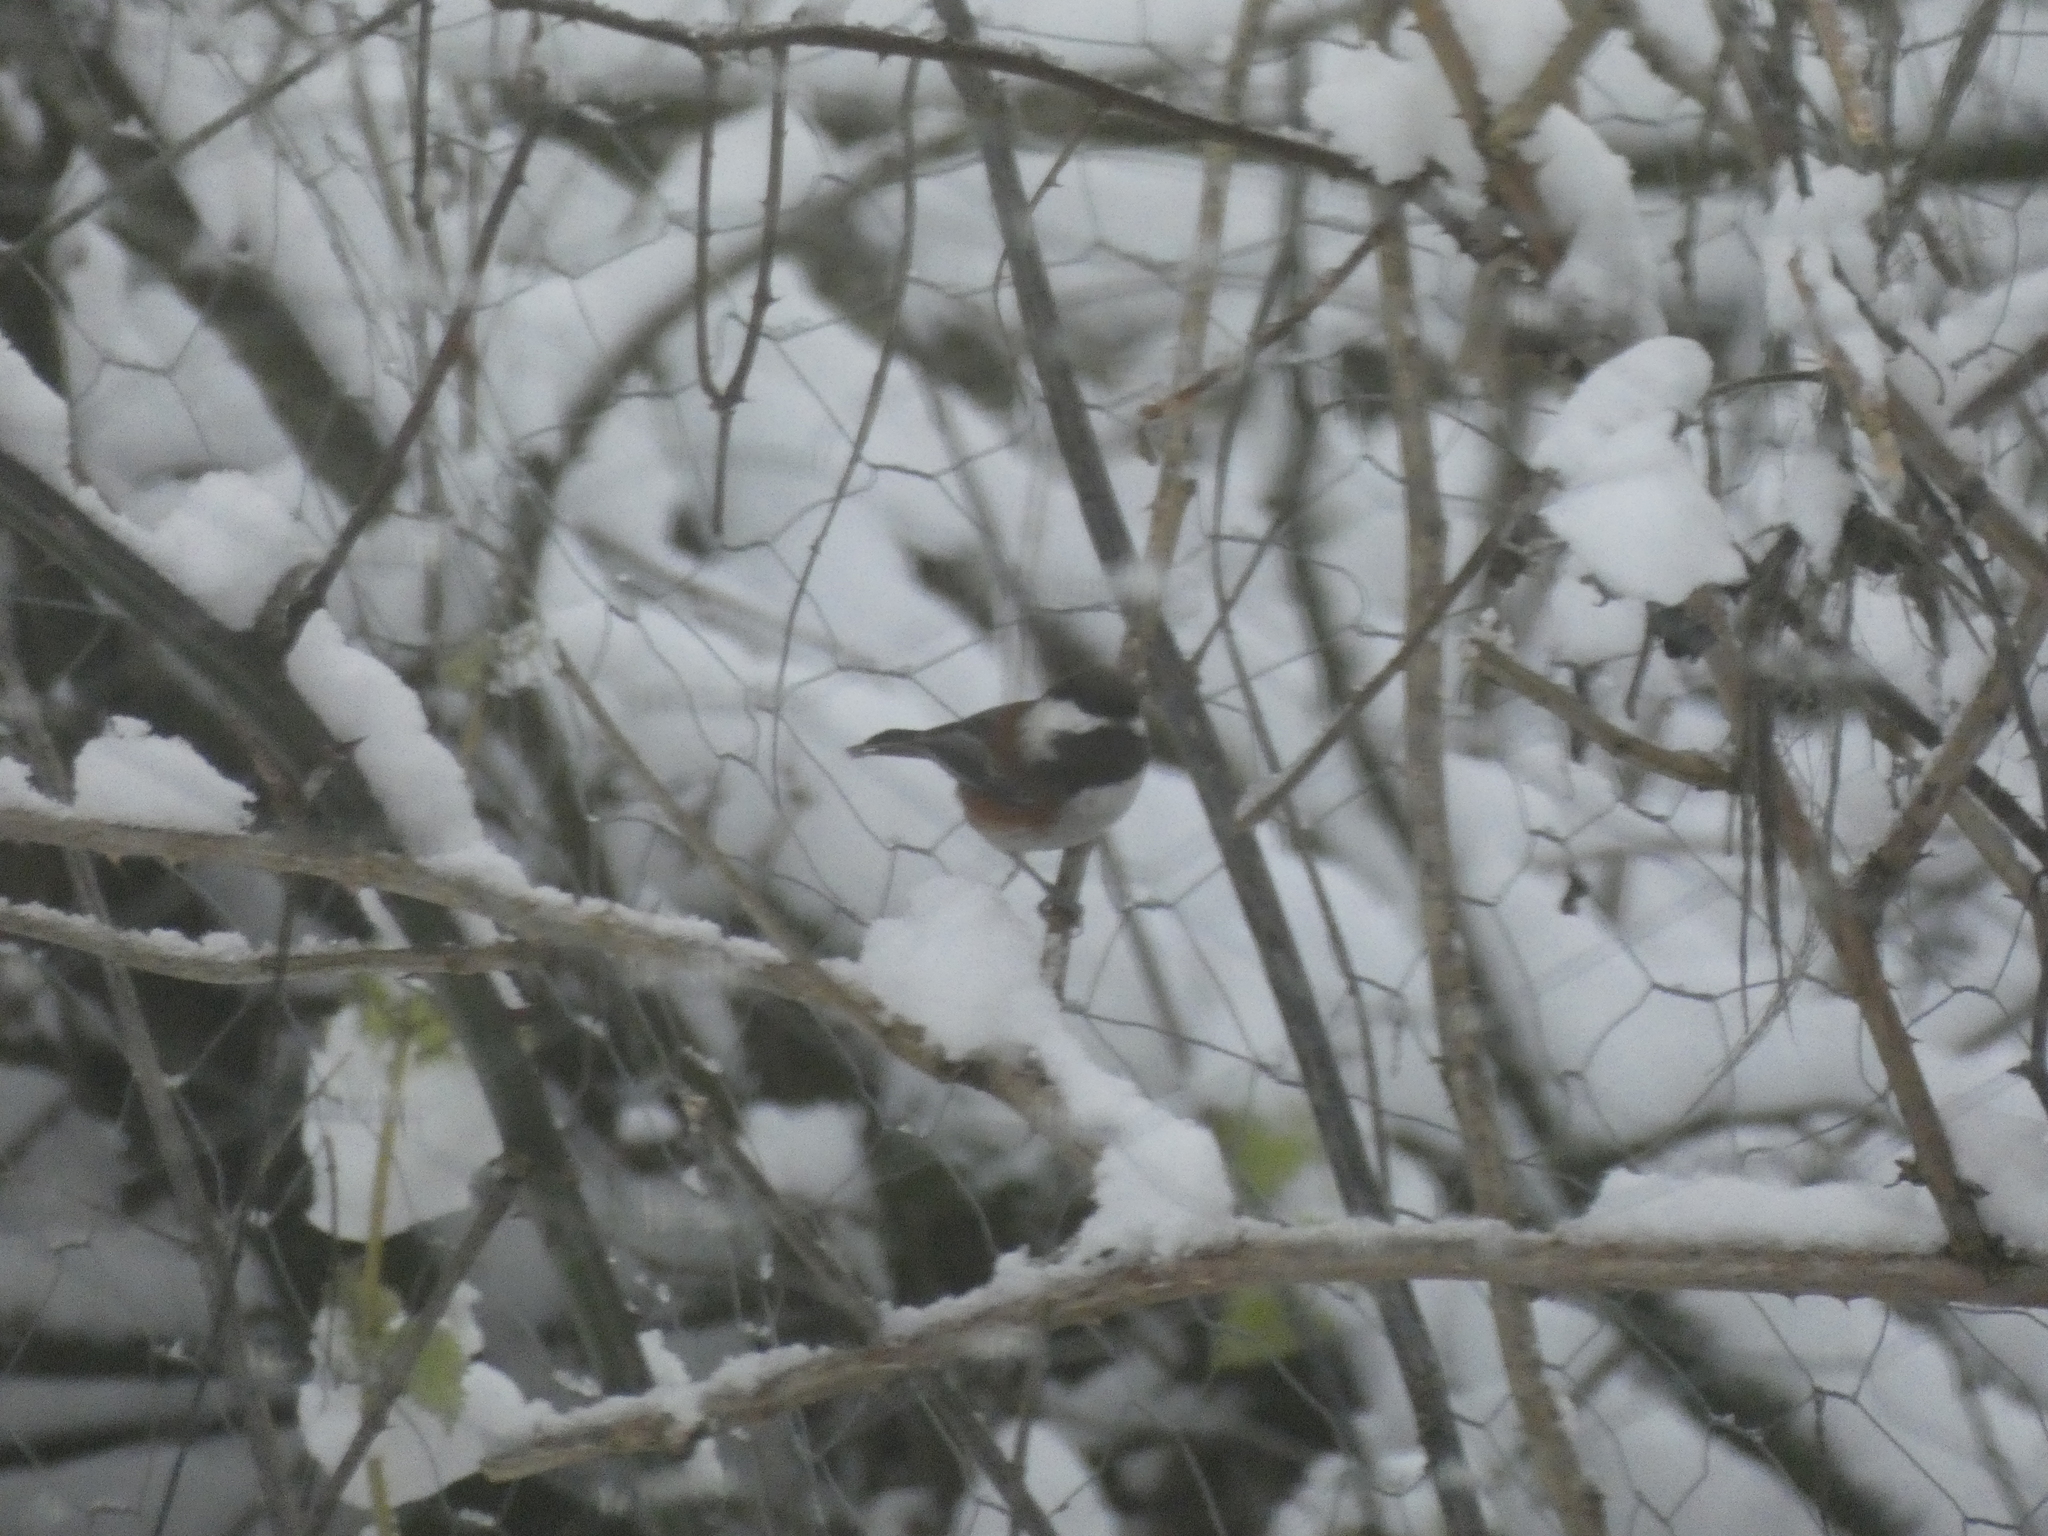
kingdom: Animalia
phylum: Chordata
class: Aves
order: Passeriformes
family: Paridae
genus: Poecile
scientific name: Poecile rufescens
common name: Chestnut-backed chickadee
